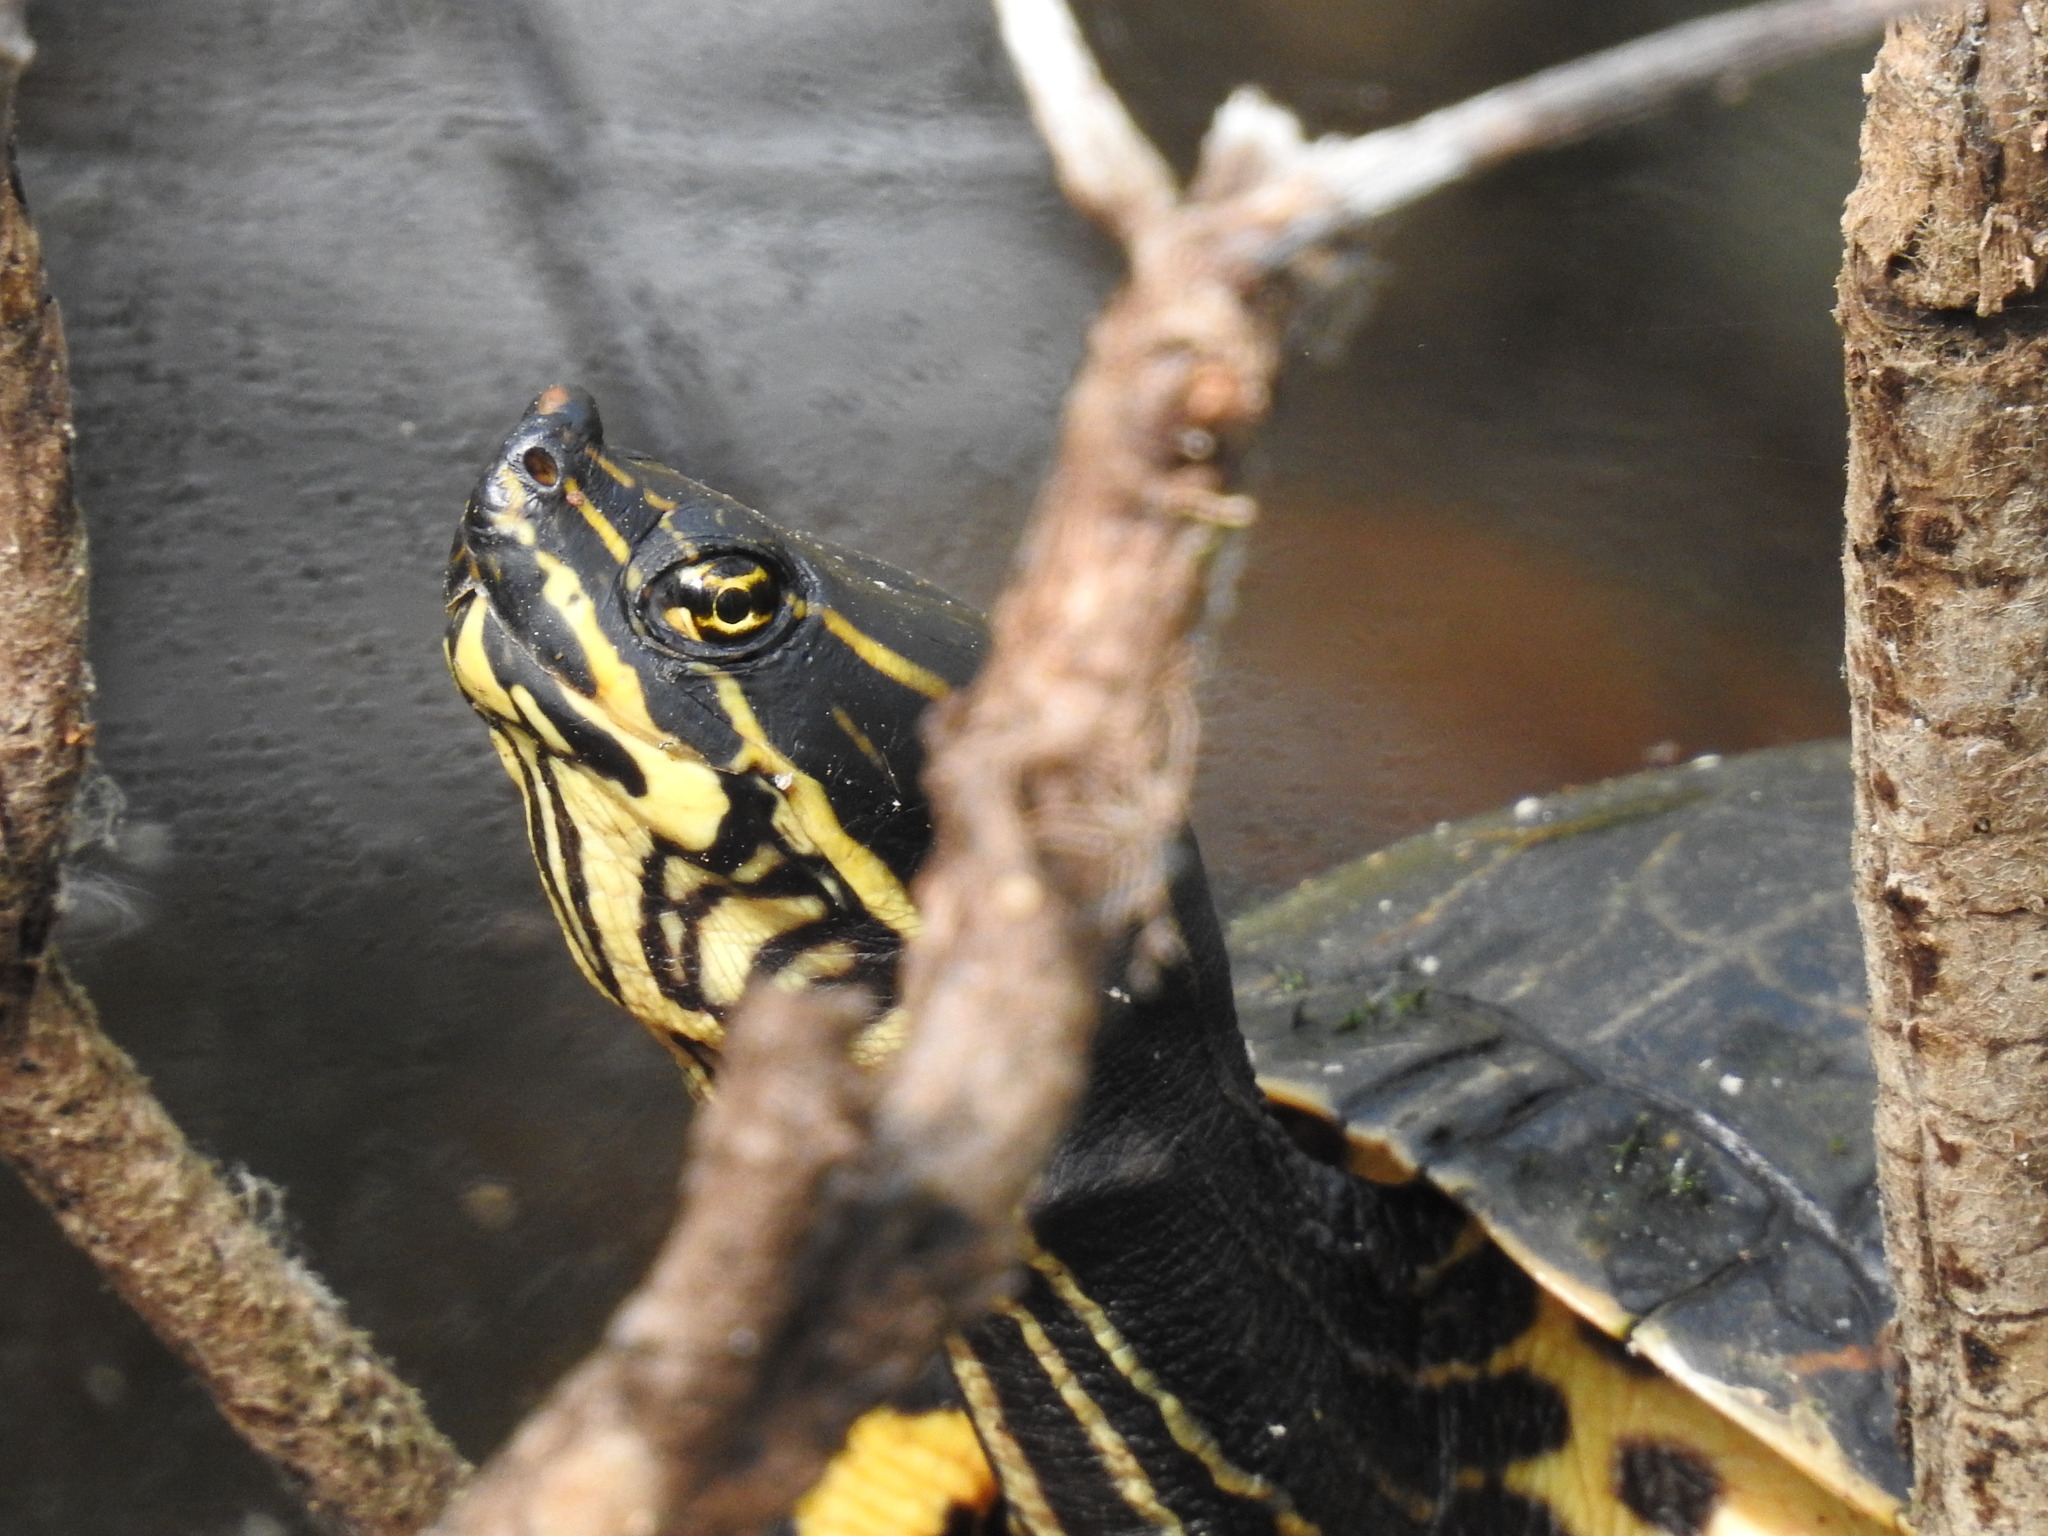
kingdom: Animalia
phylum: Chordata
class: Testudines
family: Emydidae
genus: Deirochelys
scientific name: Deirochelys reticularia
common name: Chicken turtle
